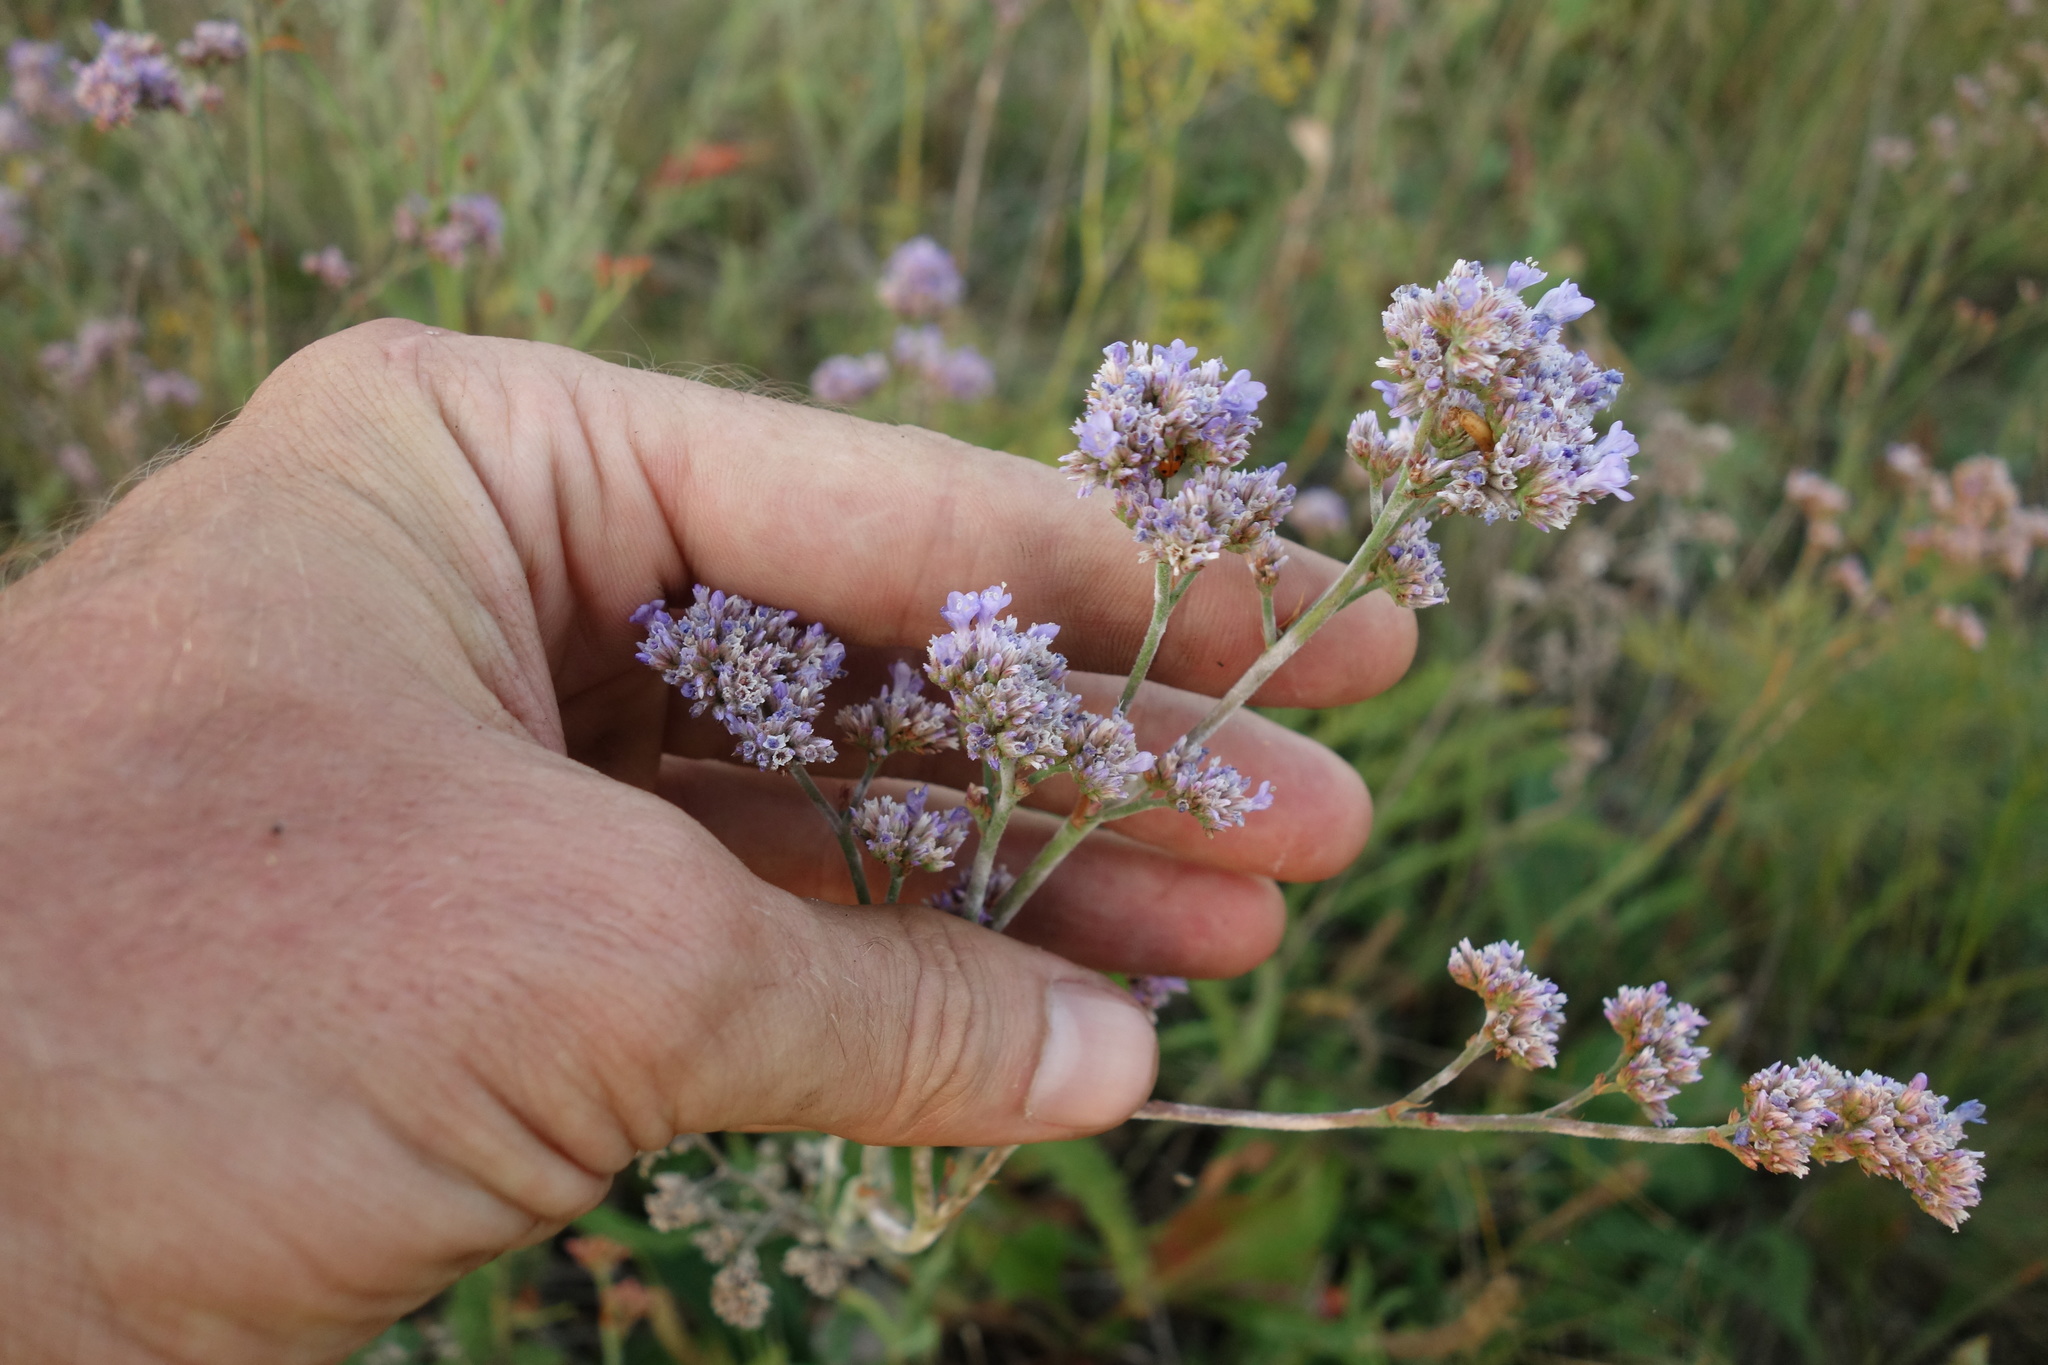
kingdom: Plantae
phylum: Tracheophyta
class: Magnoliopsida
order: Caryophyllales
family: Plumbaginaceae
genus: Limonium
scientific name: Limonium tomentellum
